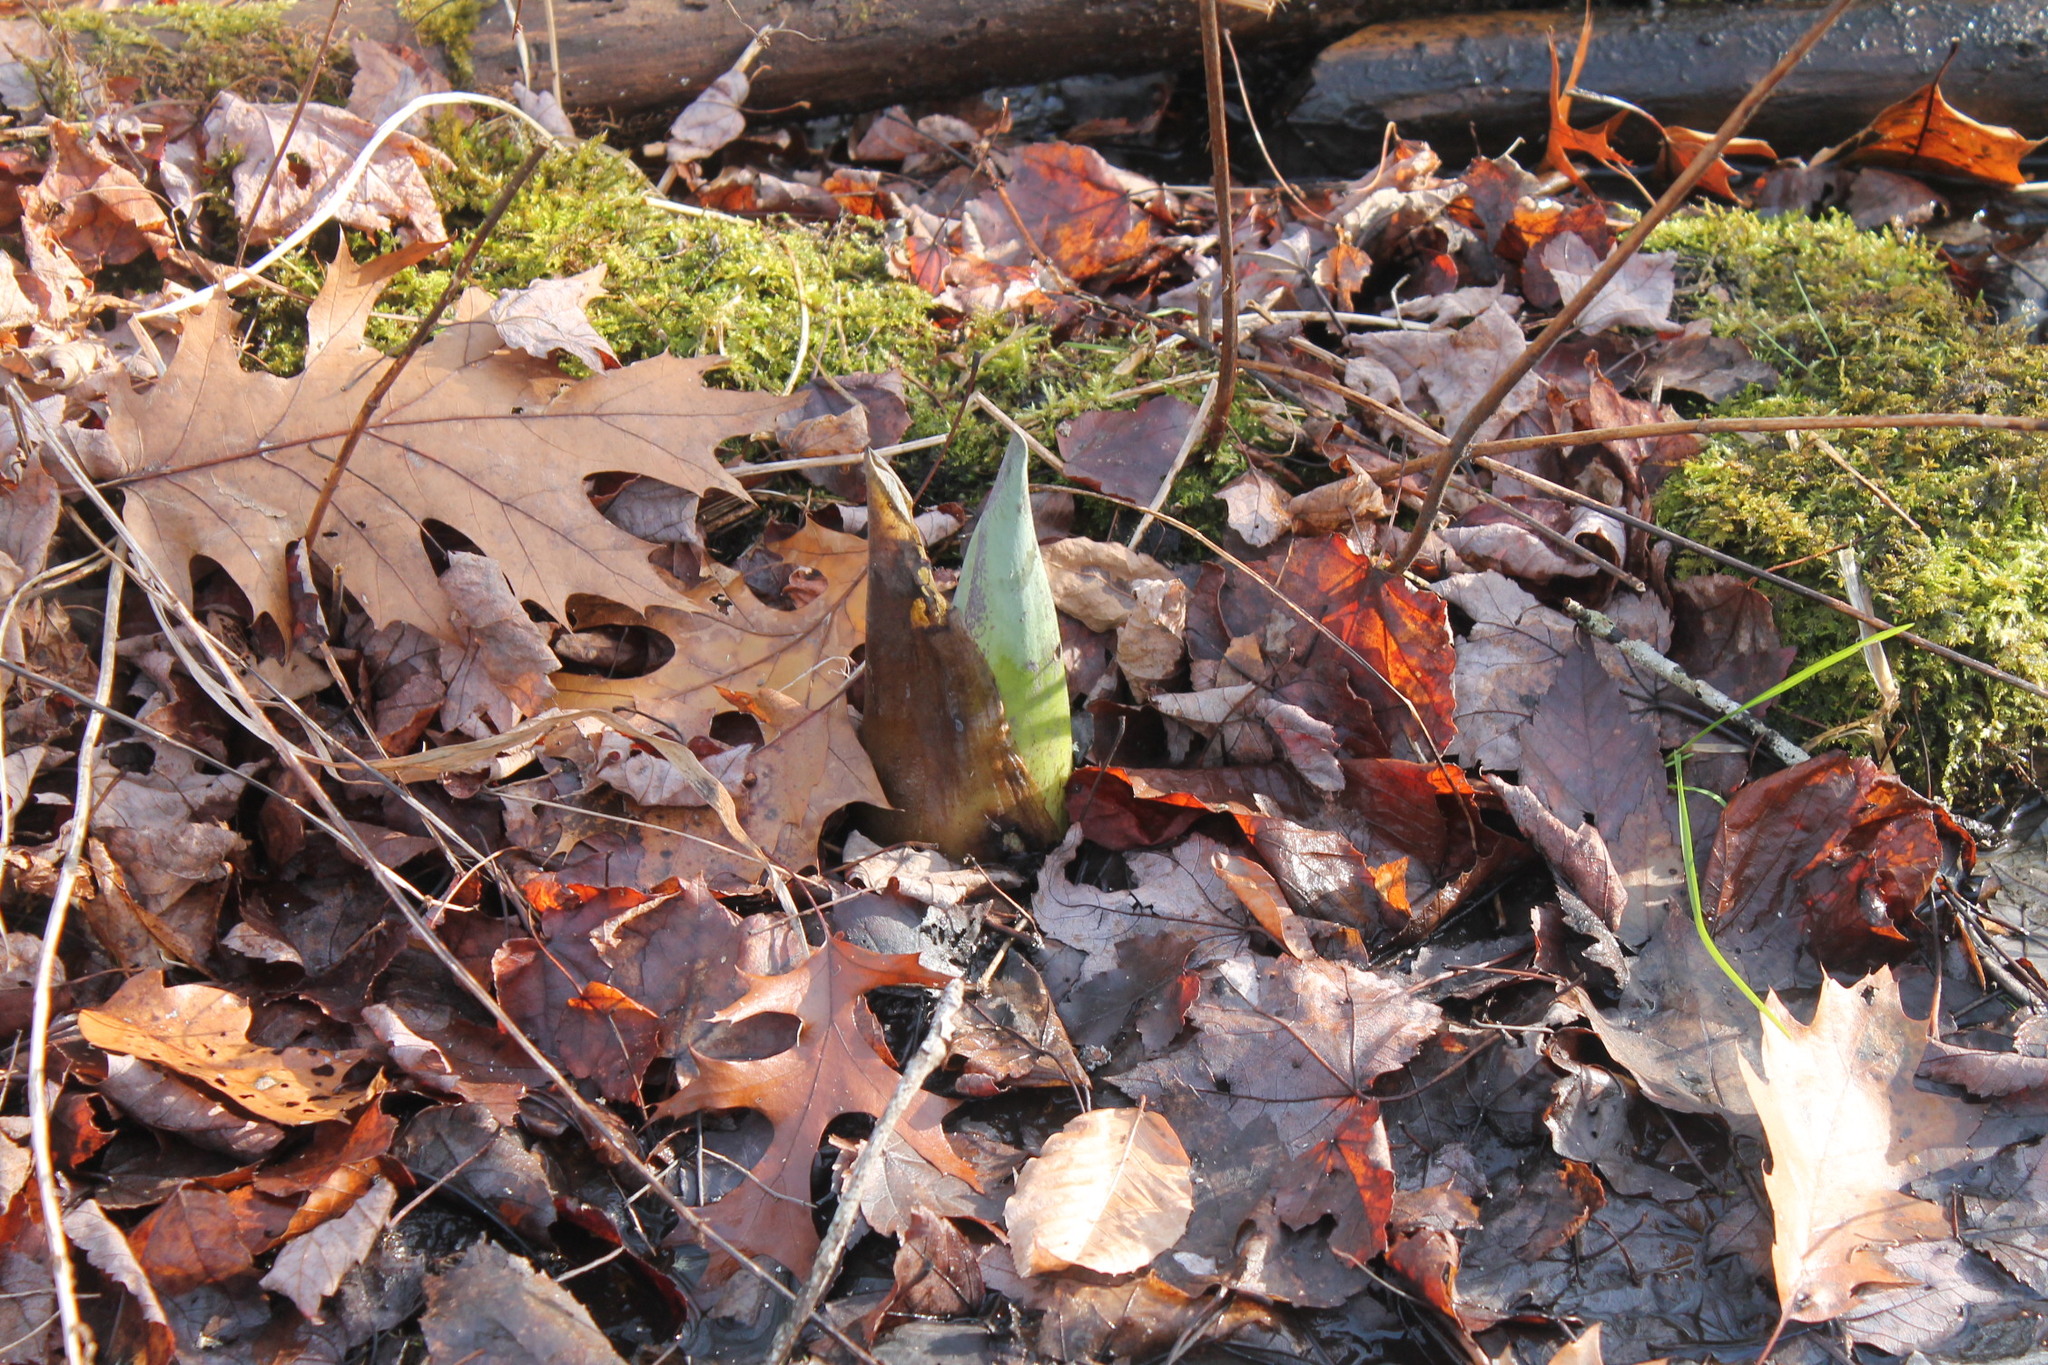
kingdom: Plantae
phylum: Tracheophyta
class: Liliopsida
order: Alismatales
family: Araceae
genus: Symplocarpus
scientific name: Symplocarpus foetidus
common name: Eastern skunk cabbage
